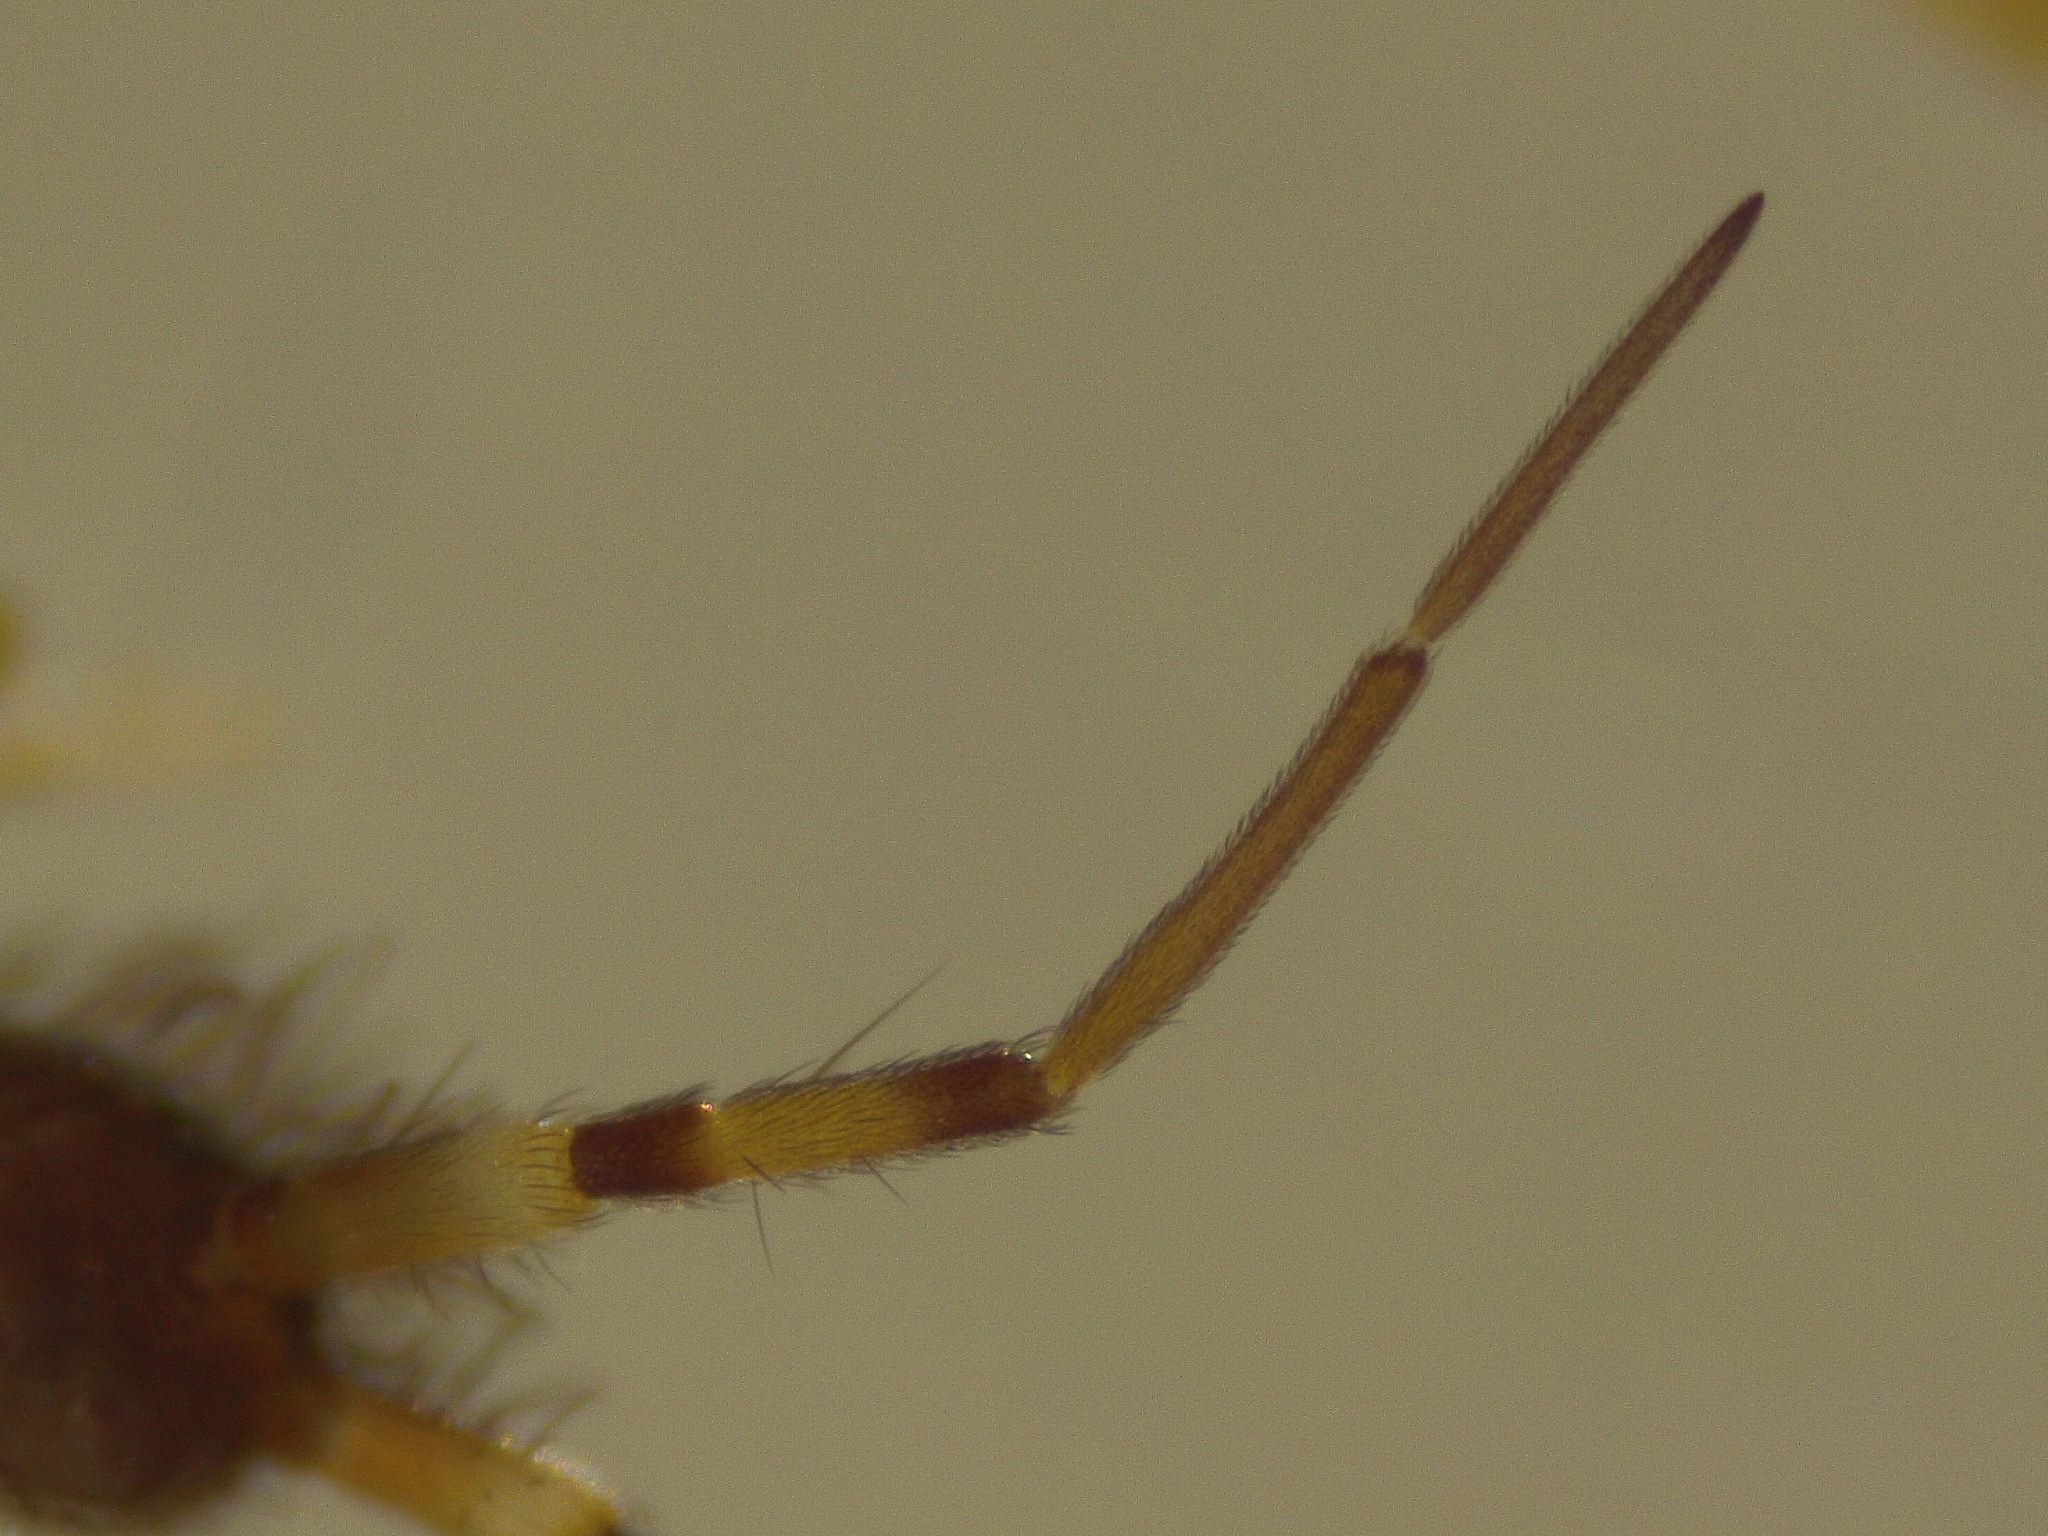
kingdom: Animalia
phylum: Arthropoda
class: Collembola
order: Entomobryomorpha
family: Orchesellidae
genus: Orchesella
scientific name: Orchesella cincta
